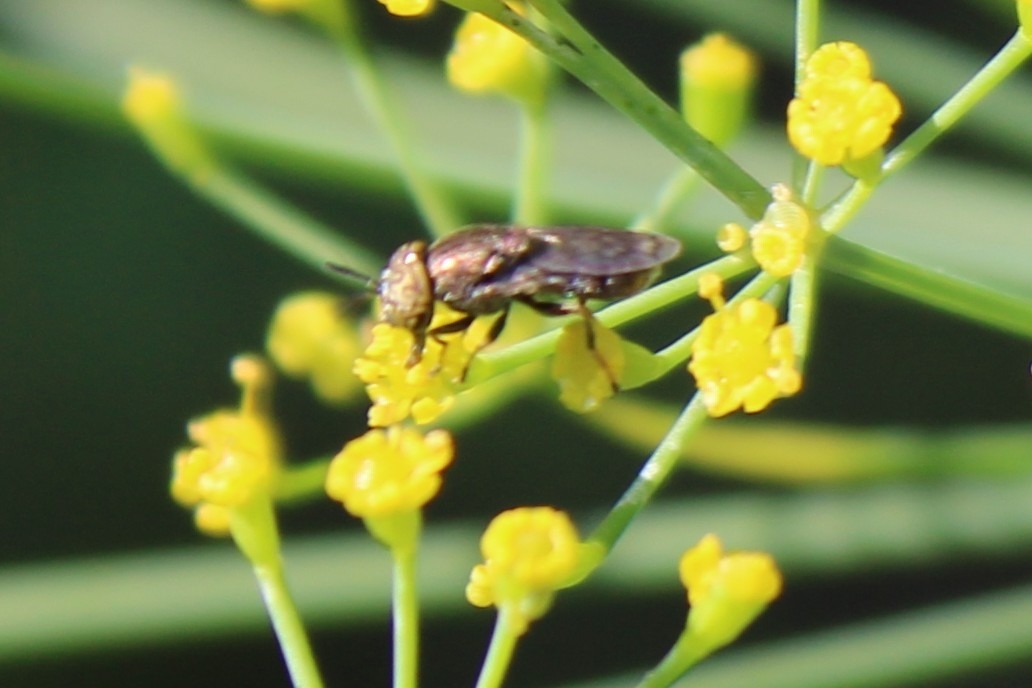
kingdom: Animalia
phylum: Arthropoda
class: Insecta
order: Diptera
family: Syrphidae
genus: Orthonevra
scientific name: Orthonevra nitida
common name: Wavy mucksucker
